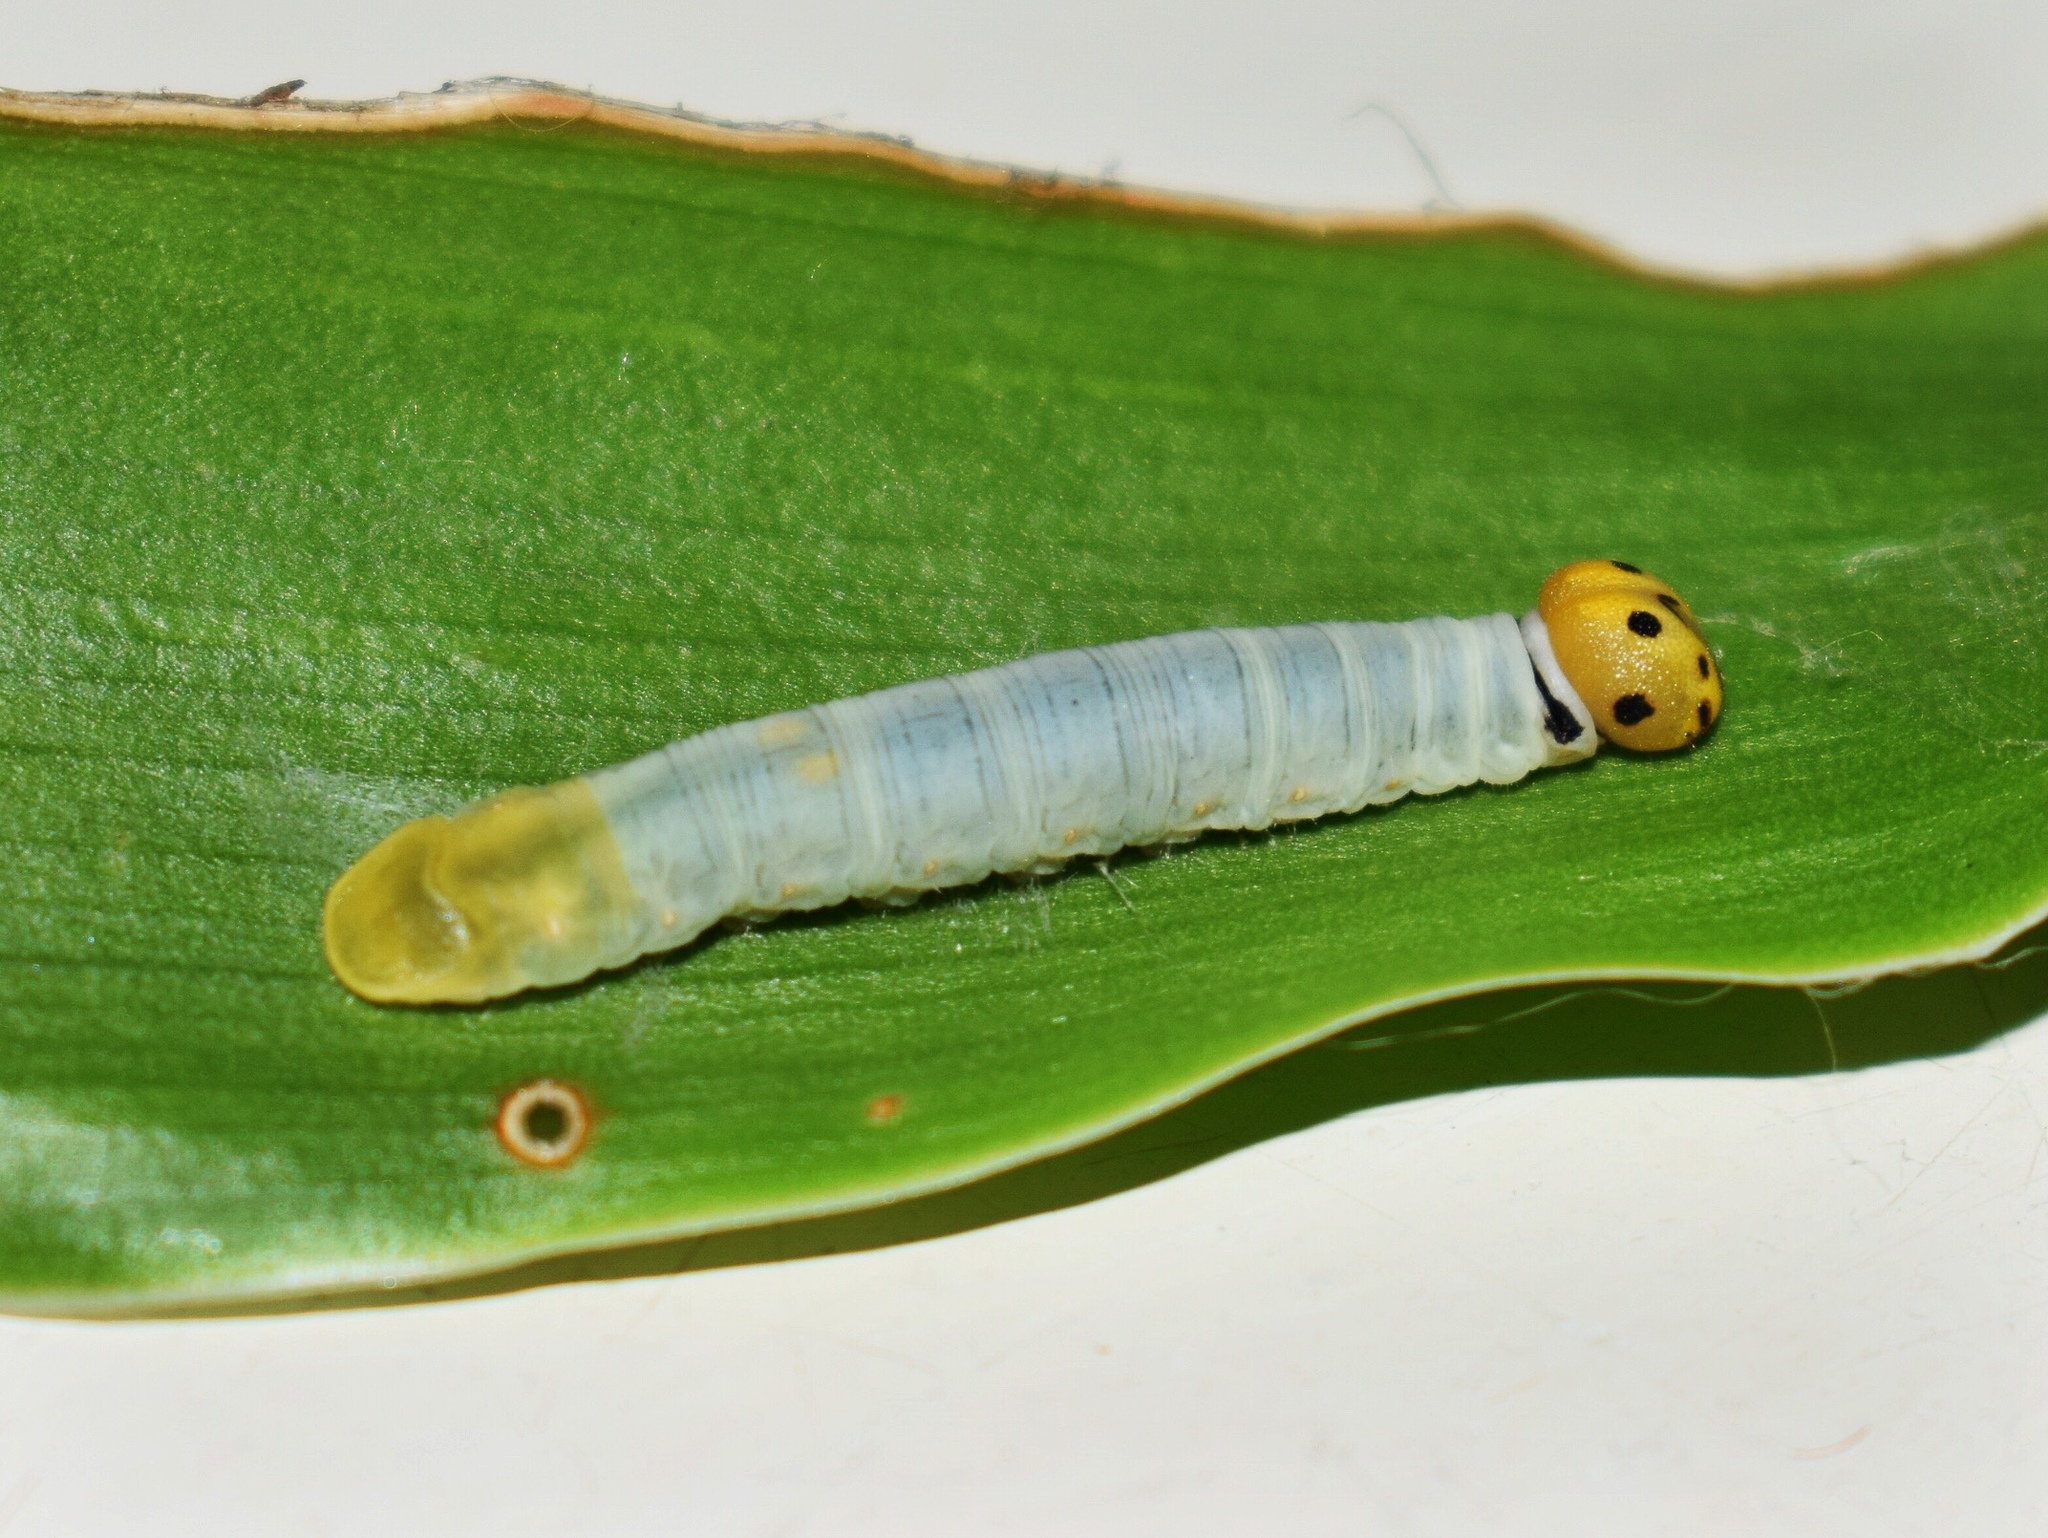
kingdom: Animalia
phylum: Arthropoda
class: Insecta
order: Lepidoptera
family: Hesperiidae
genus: Artitropa
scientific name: Artitropa erinnys
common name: Bush nightfighter
